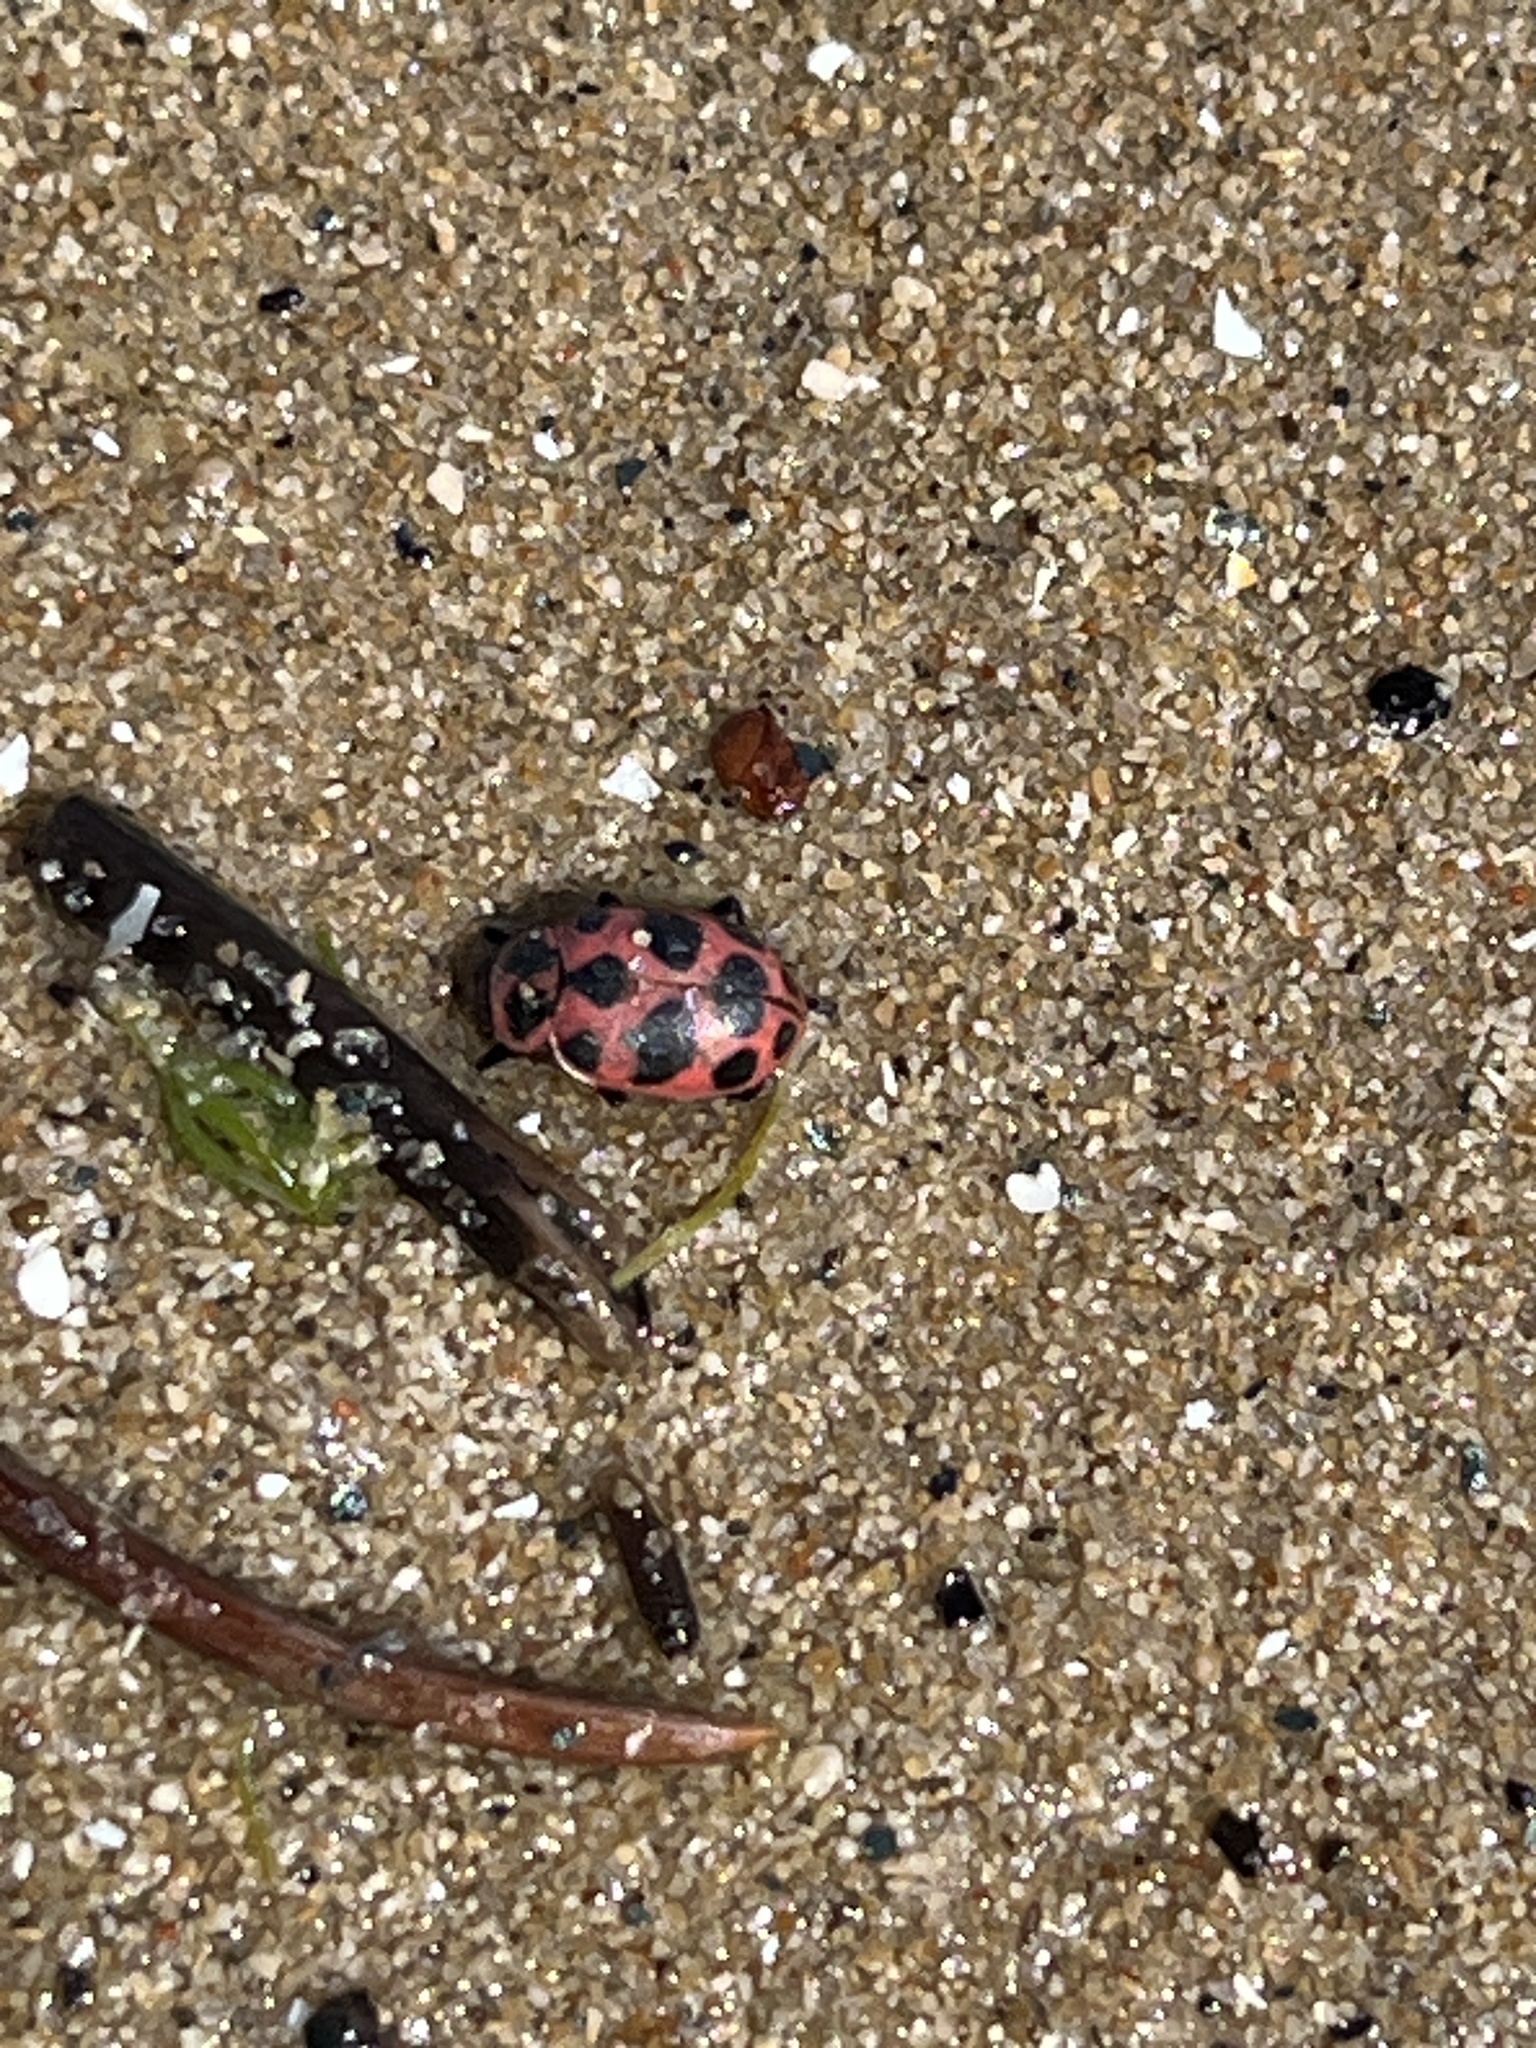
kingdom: Animalia
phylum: Arthropoda
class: Insecta
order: Coleoptera
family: Coccinellidae
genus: Coleomegilla
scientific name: Coleomegilla maculata
